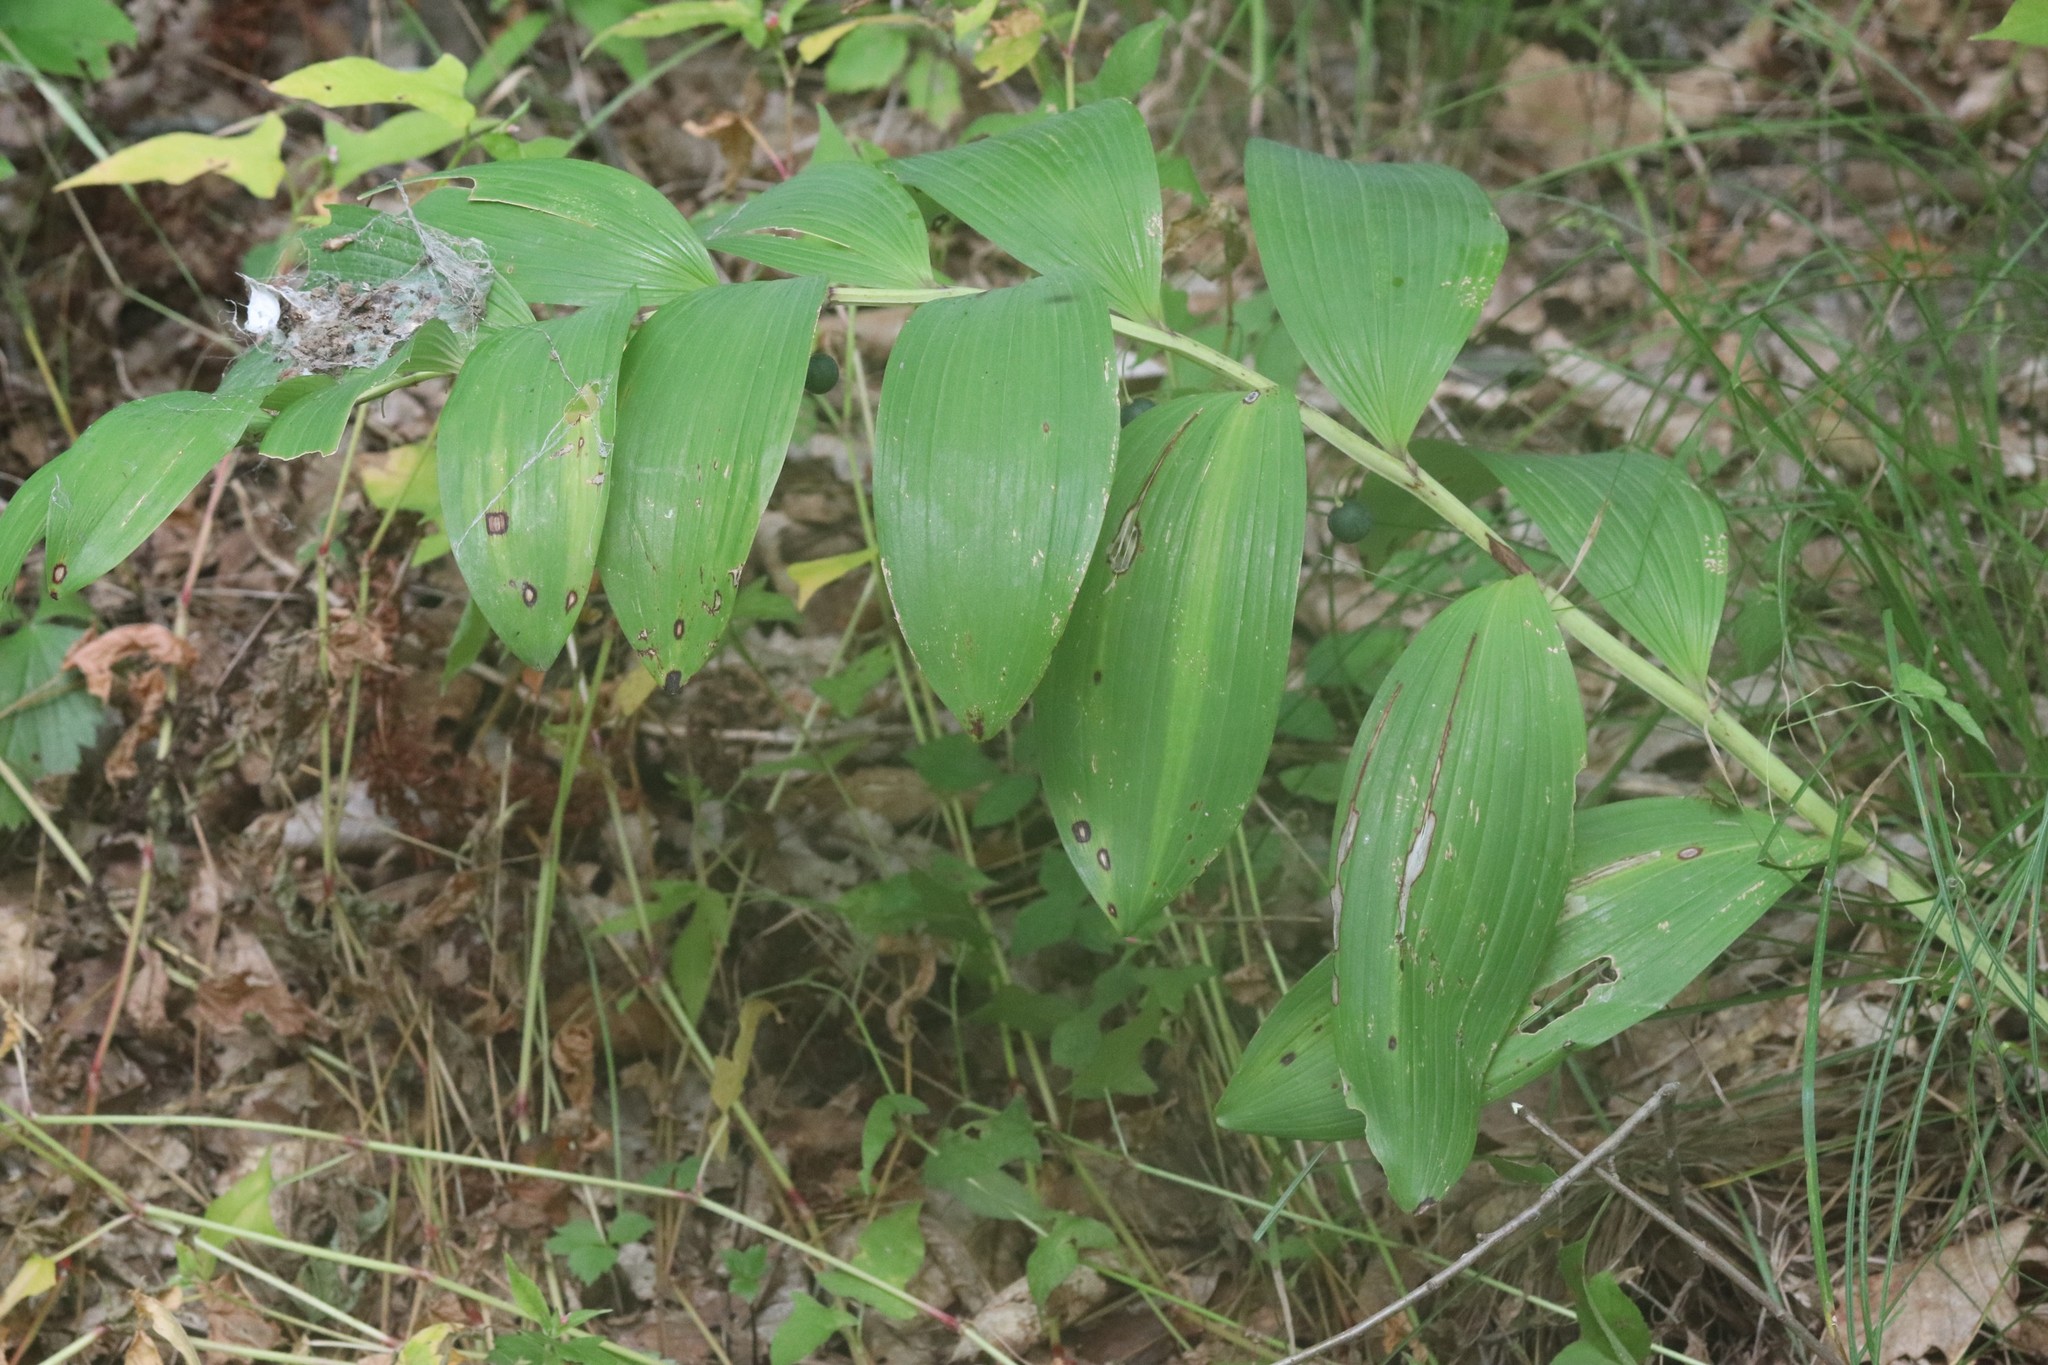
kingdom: Plantae
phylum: Tracheophyta
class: Liliopsida
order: Asparagales
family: Asparagaceae
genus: Polygonatum
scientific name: Polygonatum odoratum
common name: Angular solomon's-seal
